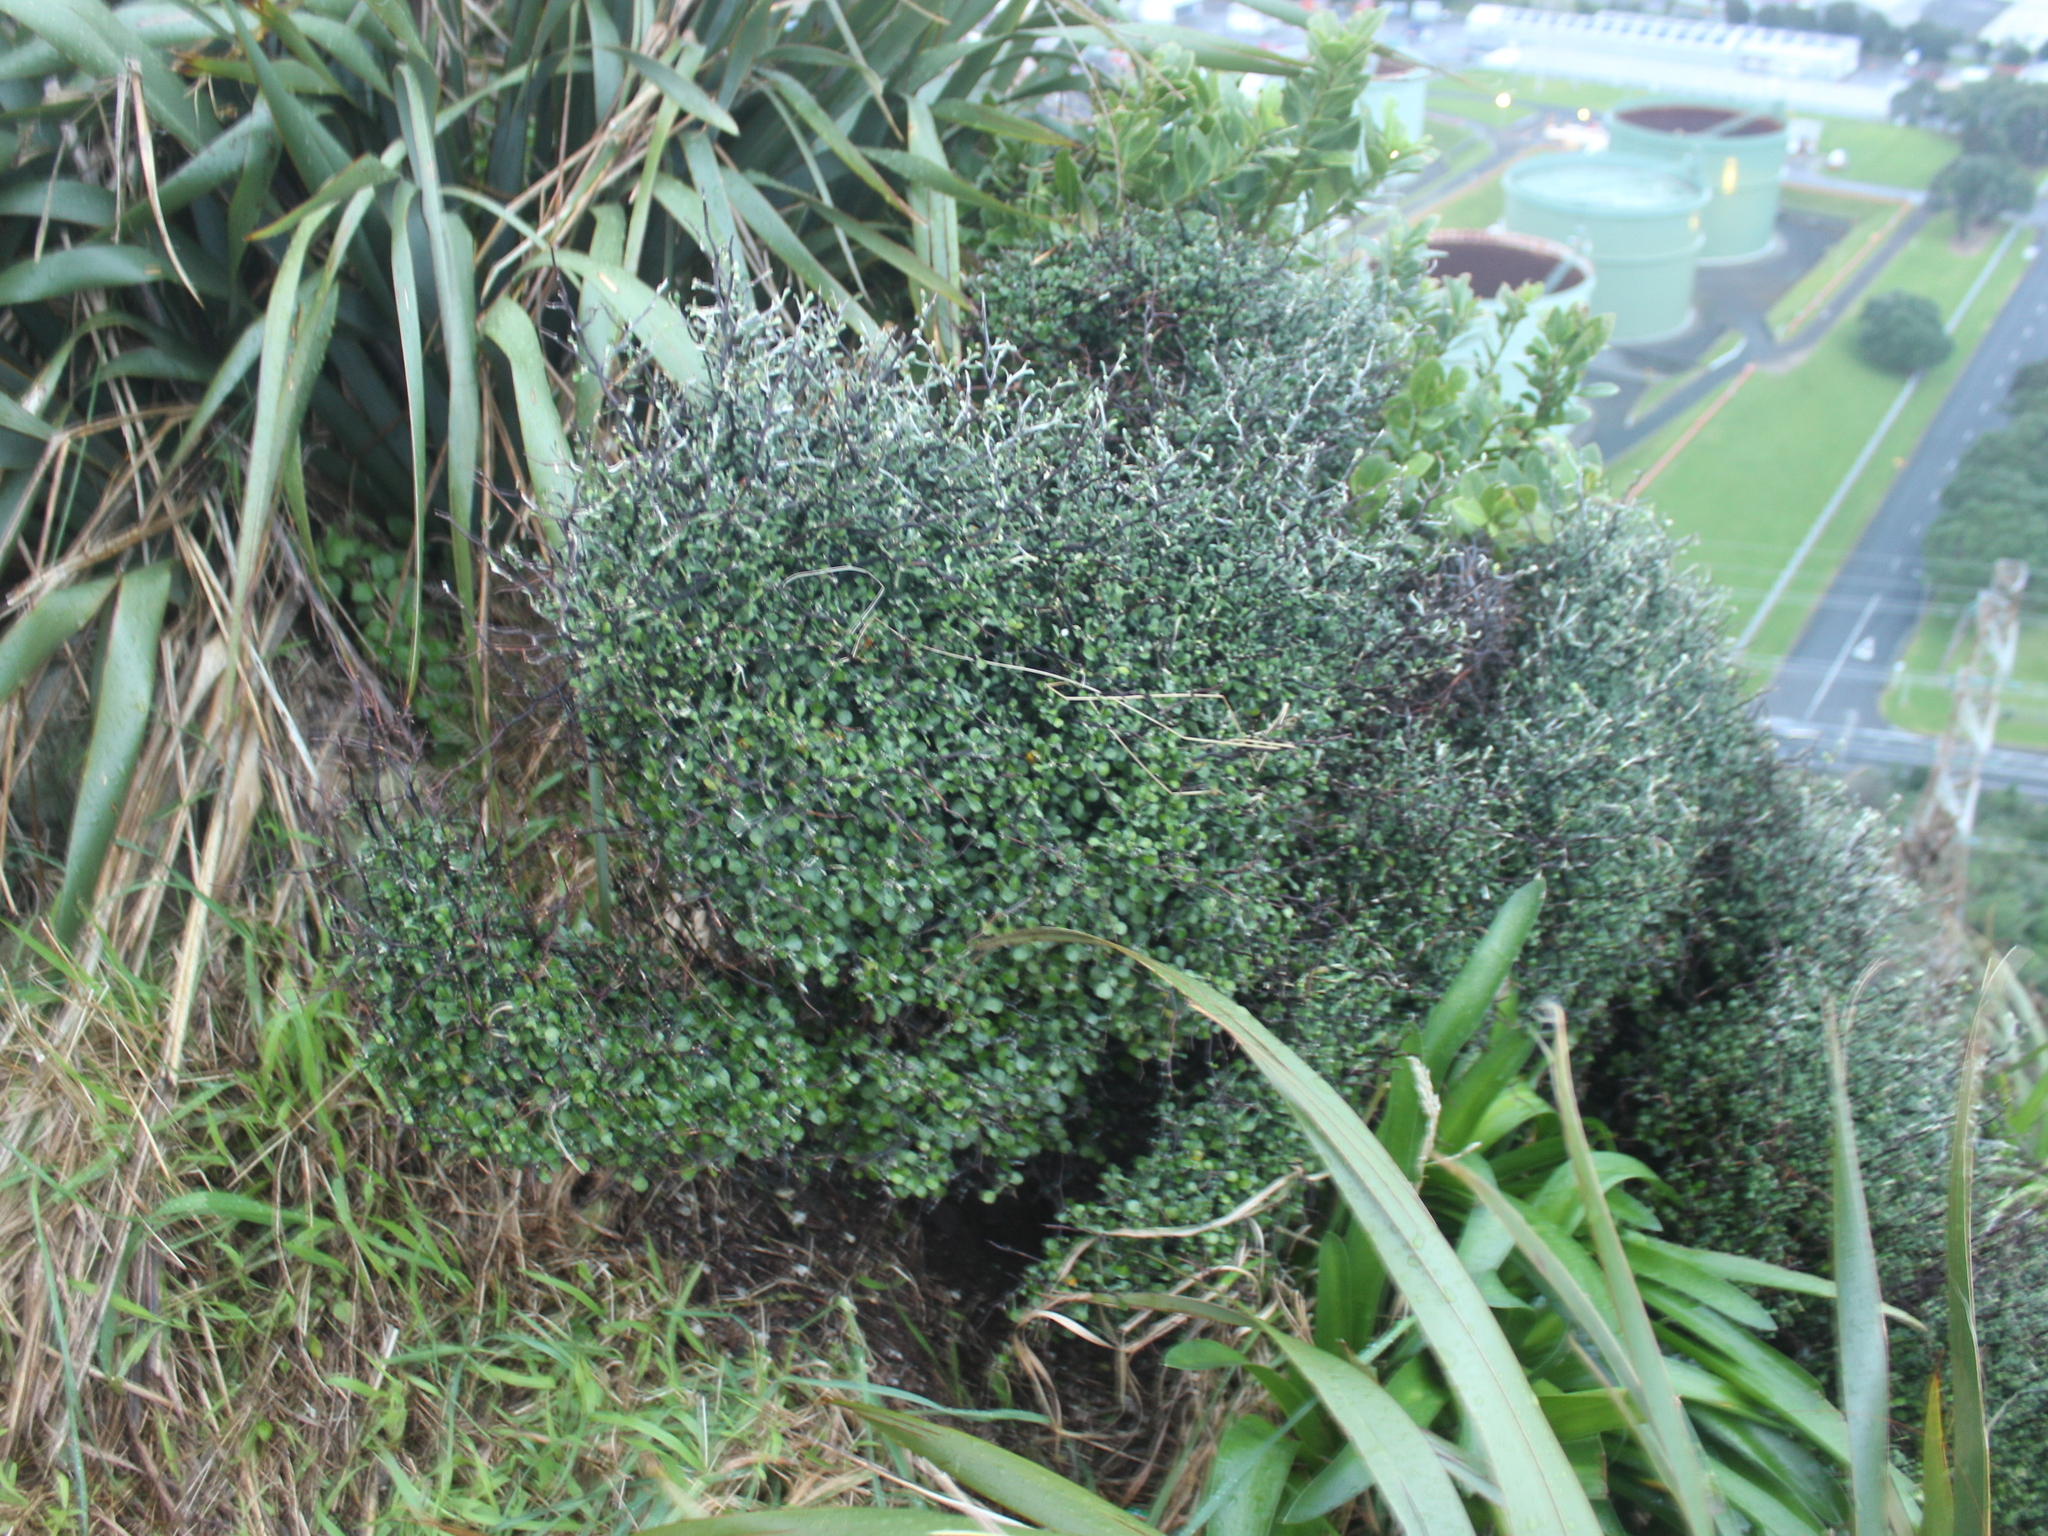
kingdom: Plantae
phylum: Tracheophyta
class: Magnoliopsida
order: Asterales
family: Argophyllaceae
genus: Corokia
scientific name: Corokia cotoneaster
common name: Wire nettingbush
